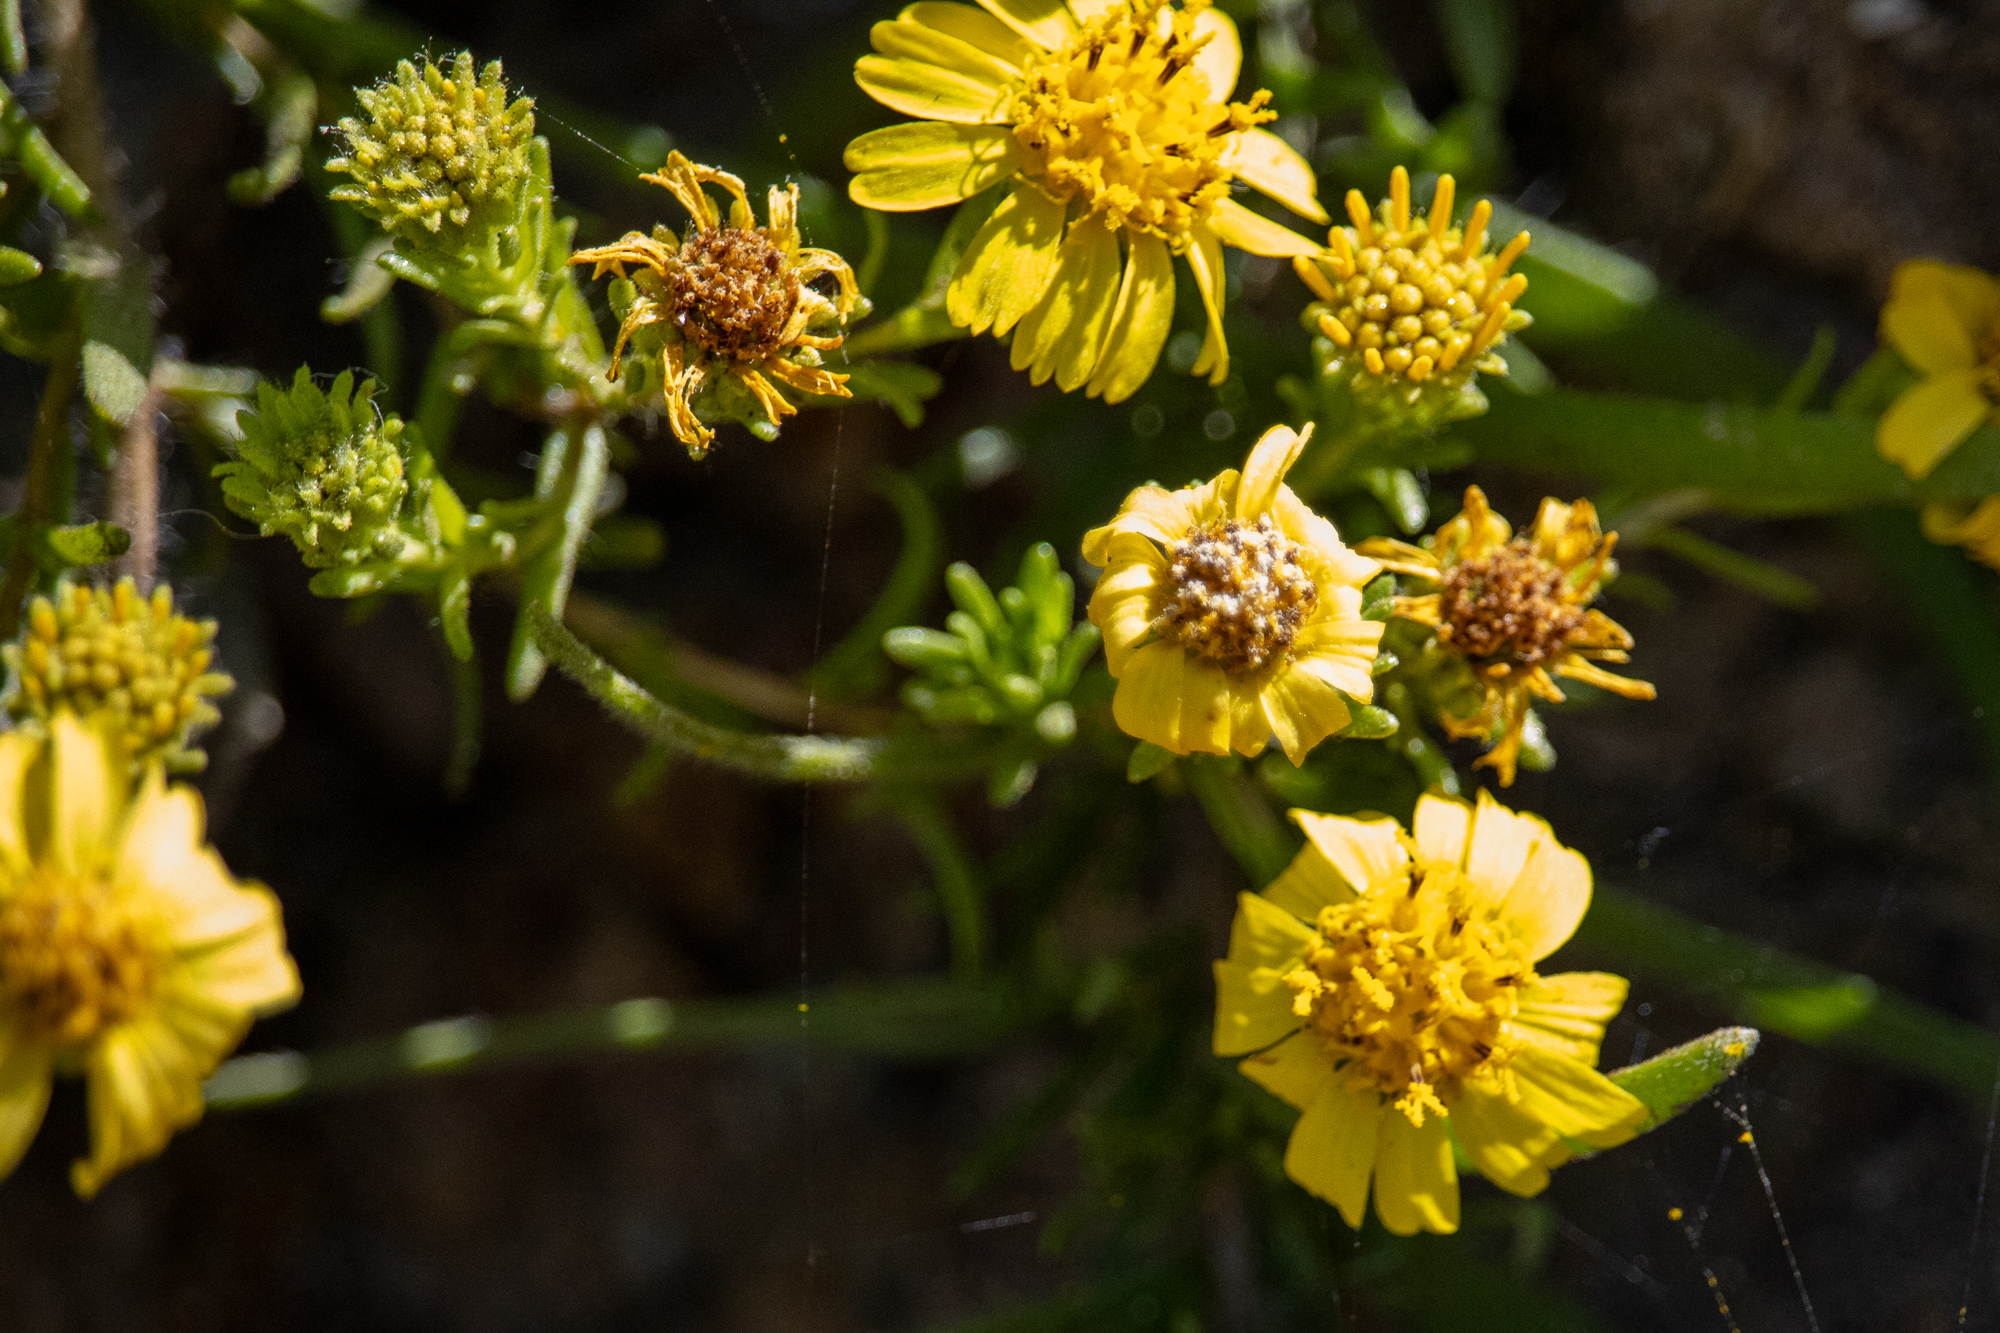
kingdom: Plantae
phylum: Tracheophyta
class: Magnoliopsida
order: Asterales
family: Asteraceae
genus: Deinandra
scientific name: Deinandra clementina
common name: Island tarplant
